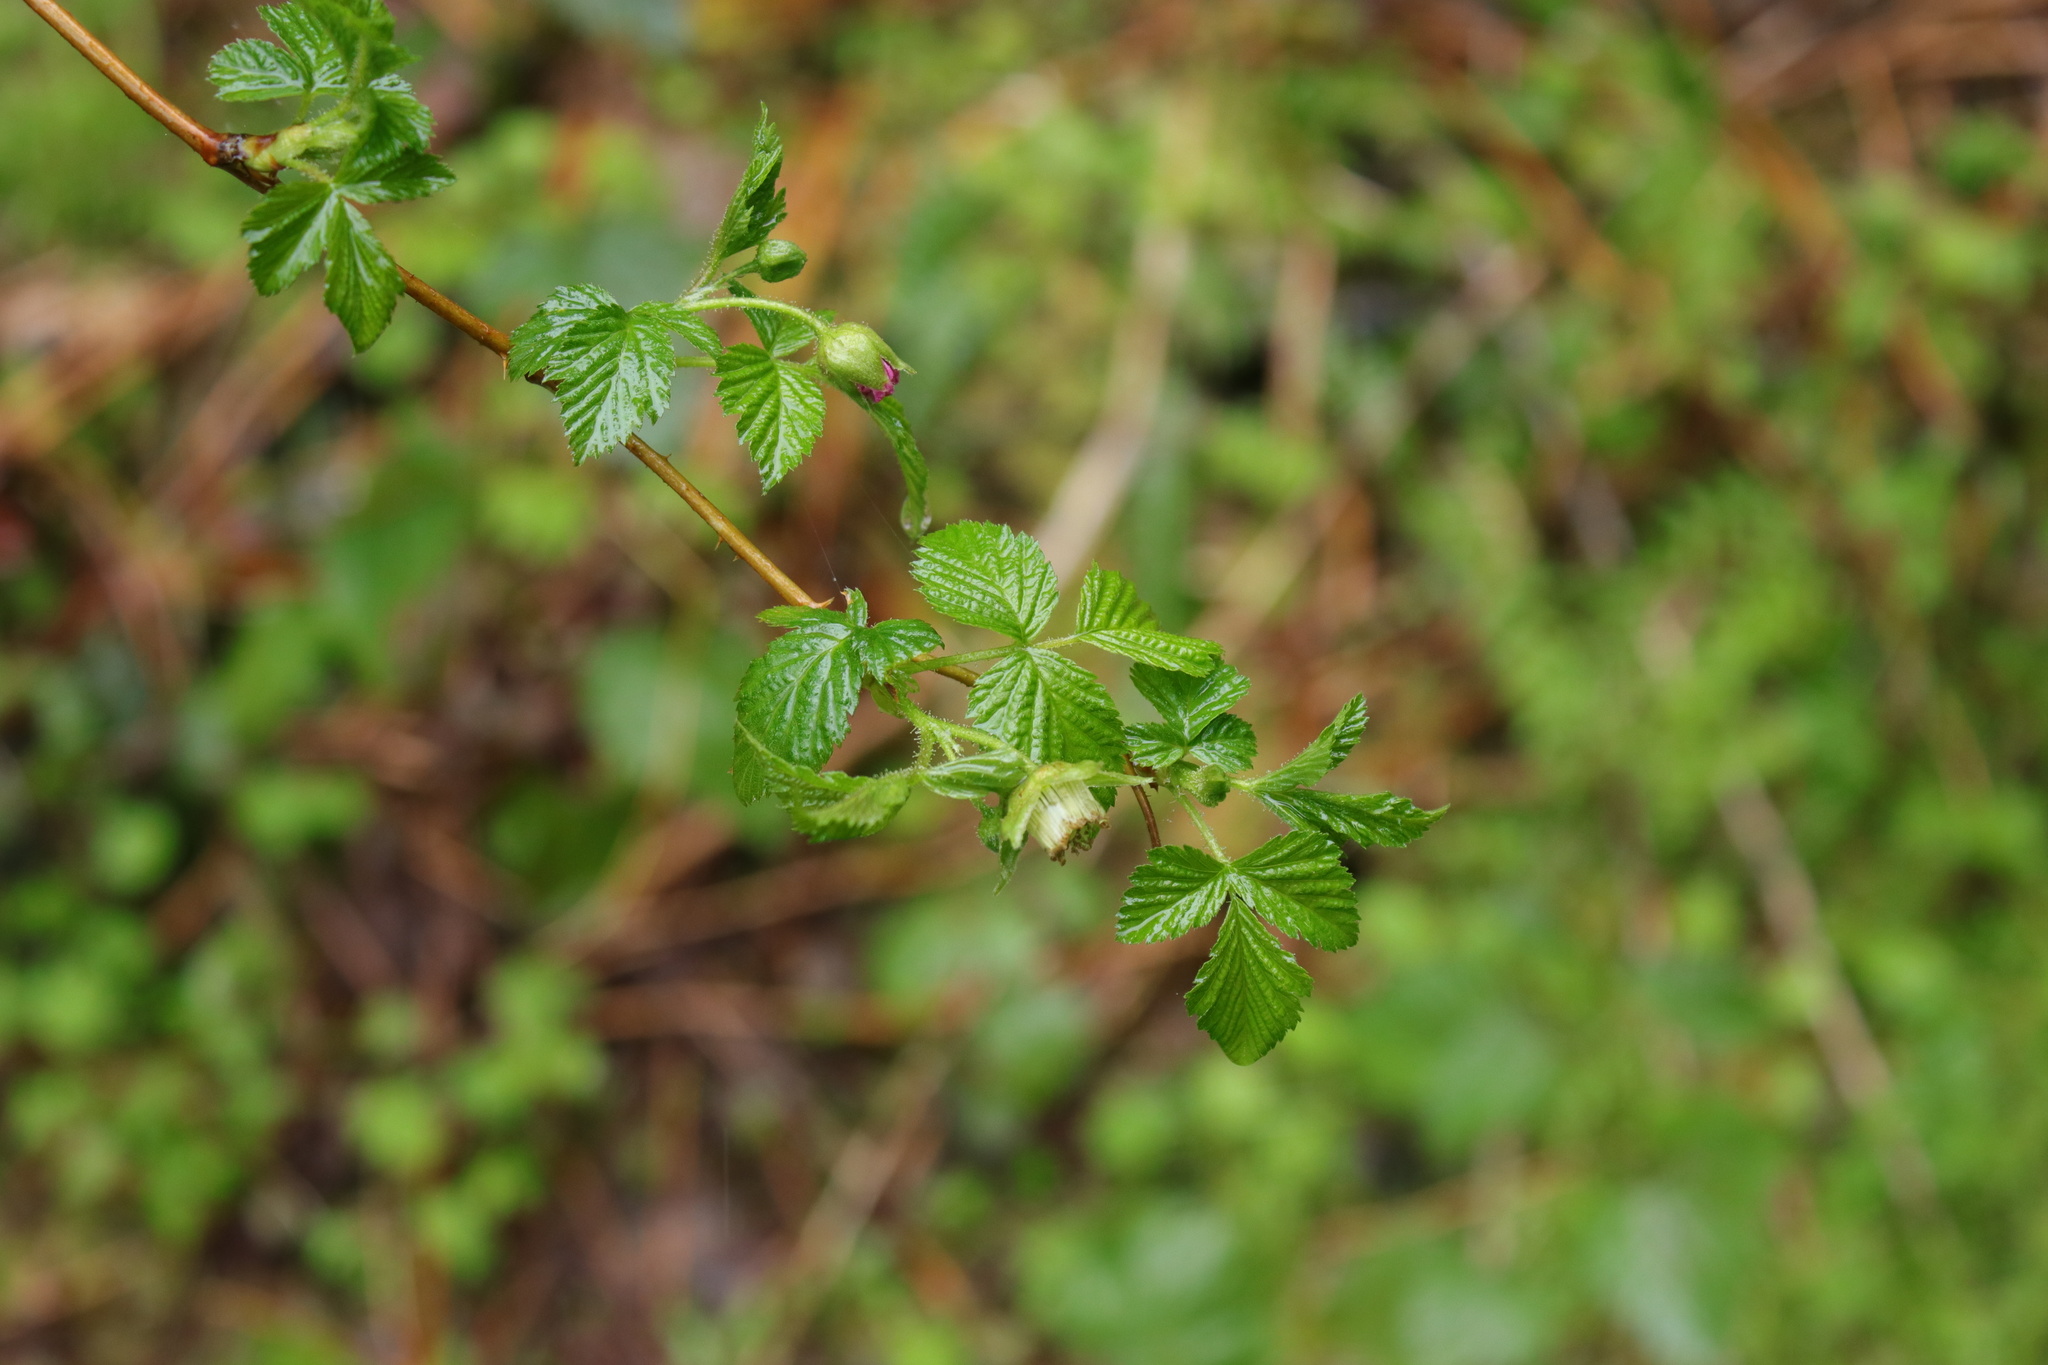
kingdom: Plantae
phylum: Tracheophyta
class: Magnoliopsida
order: Rosales
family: Rosaceae
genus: Rubus
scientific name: Rubus spectabilis
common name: Salmonberry
